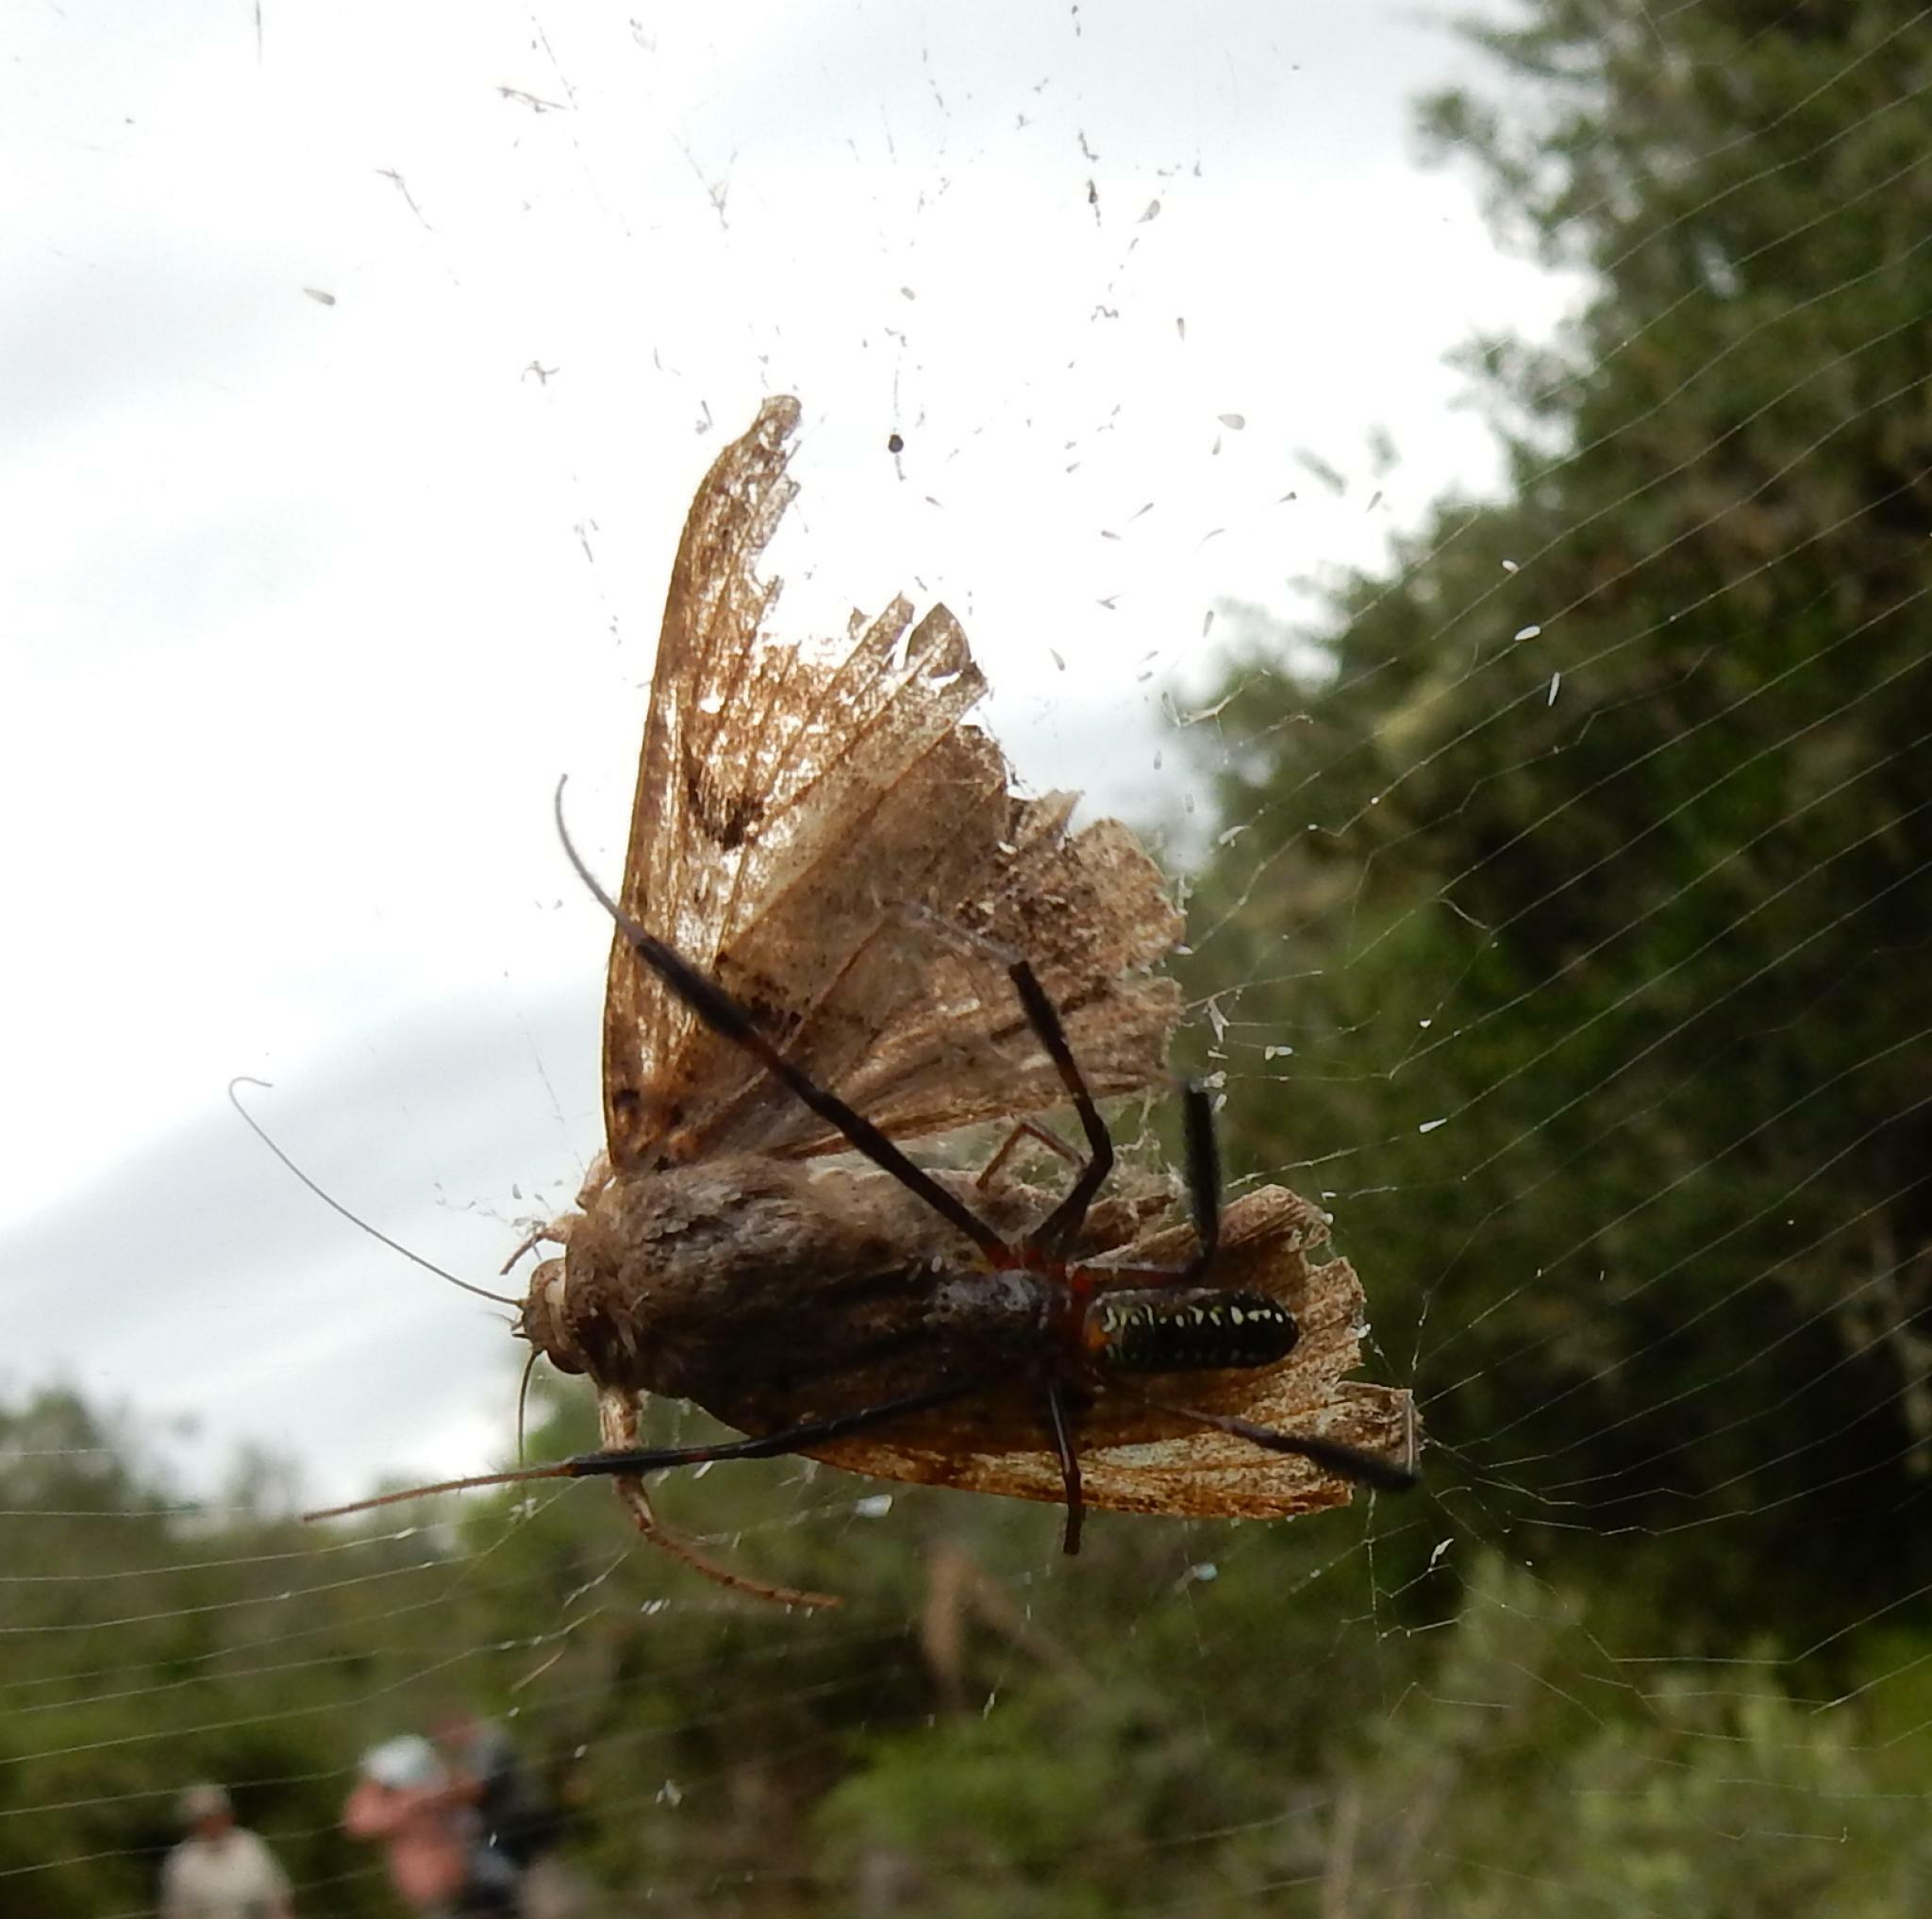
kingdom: Animalia
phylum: Arthropoda
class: Arachnida
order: Araneae
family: Araneidae
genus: Trichonephila
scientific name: Trichonephila fenestrata
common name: Hairy golden orb weaver
